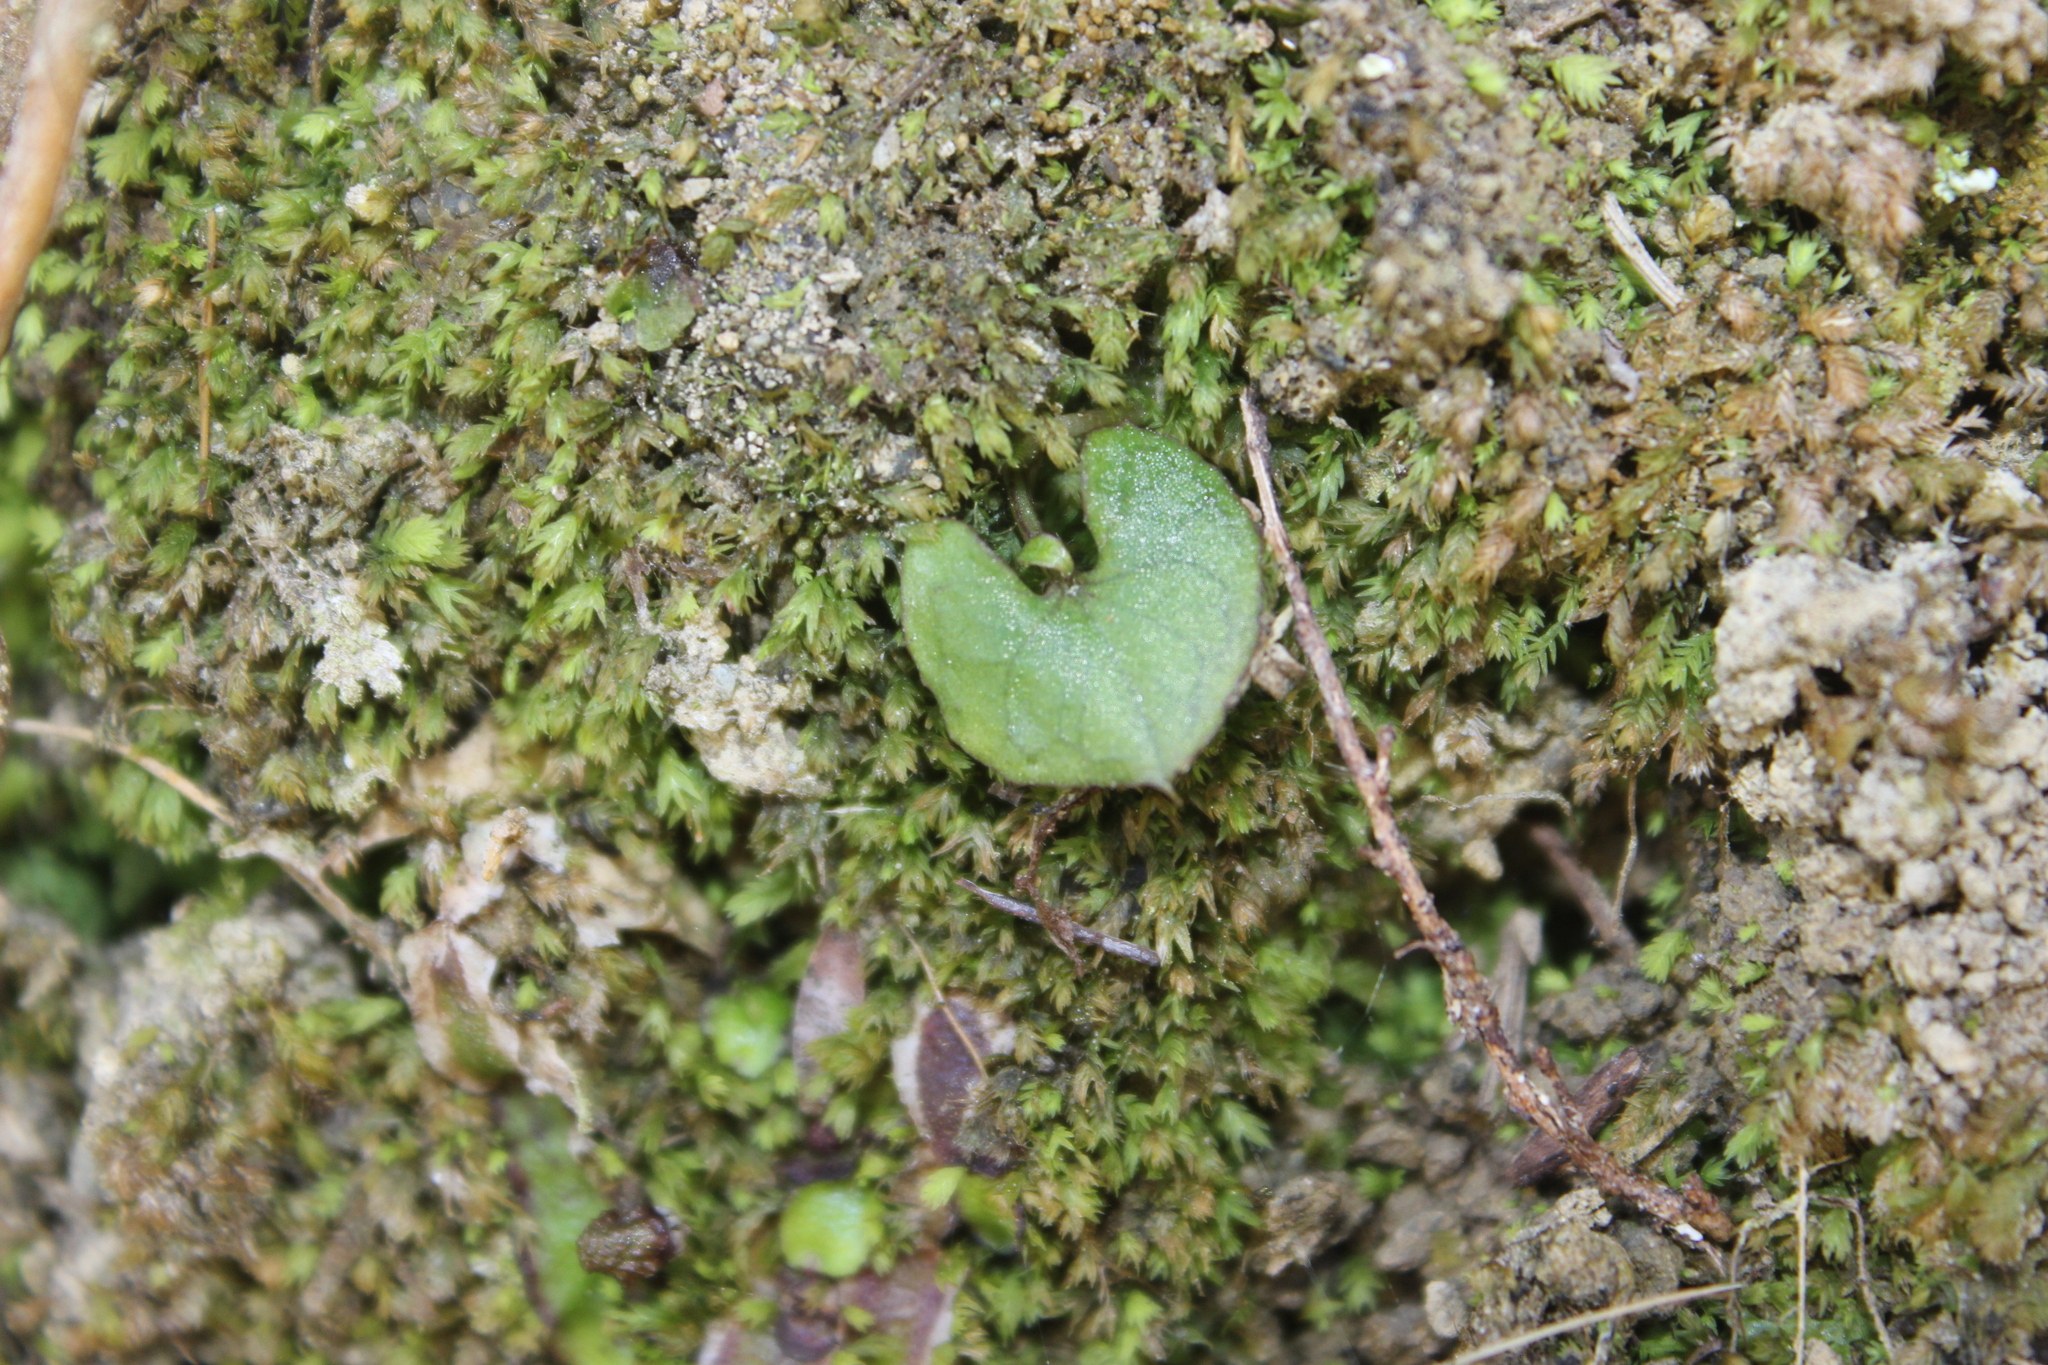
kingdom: Plantae
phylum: Tracheophyta
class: Liliopsida
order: Asparagales
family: Orchidaceae
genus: Acianthus
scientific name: Acianthus sinclairii
